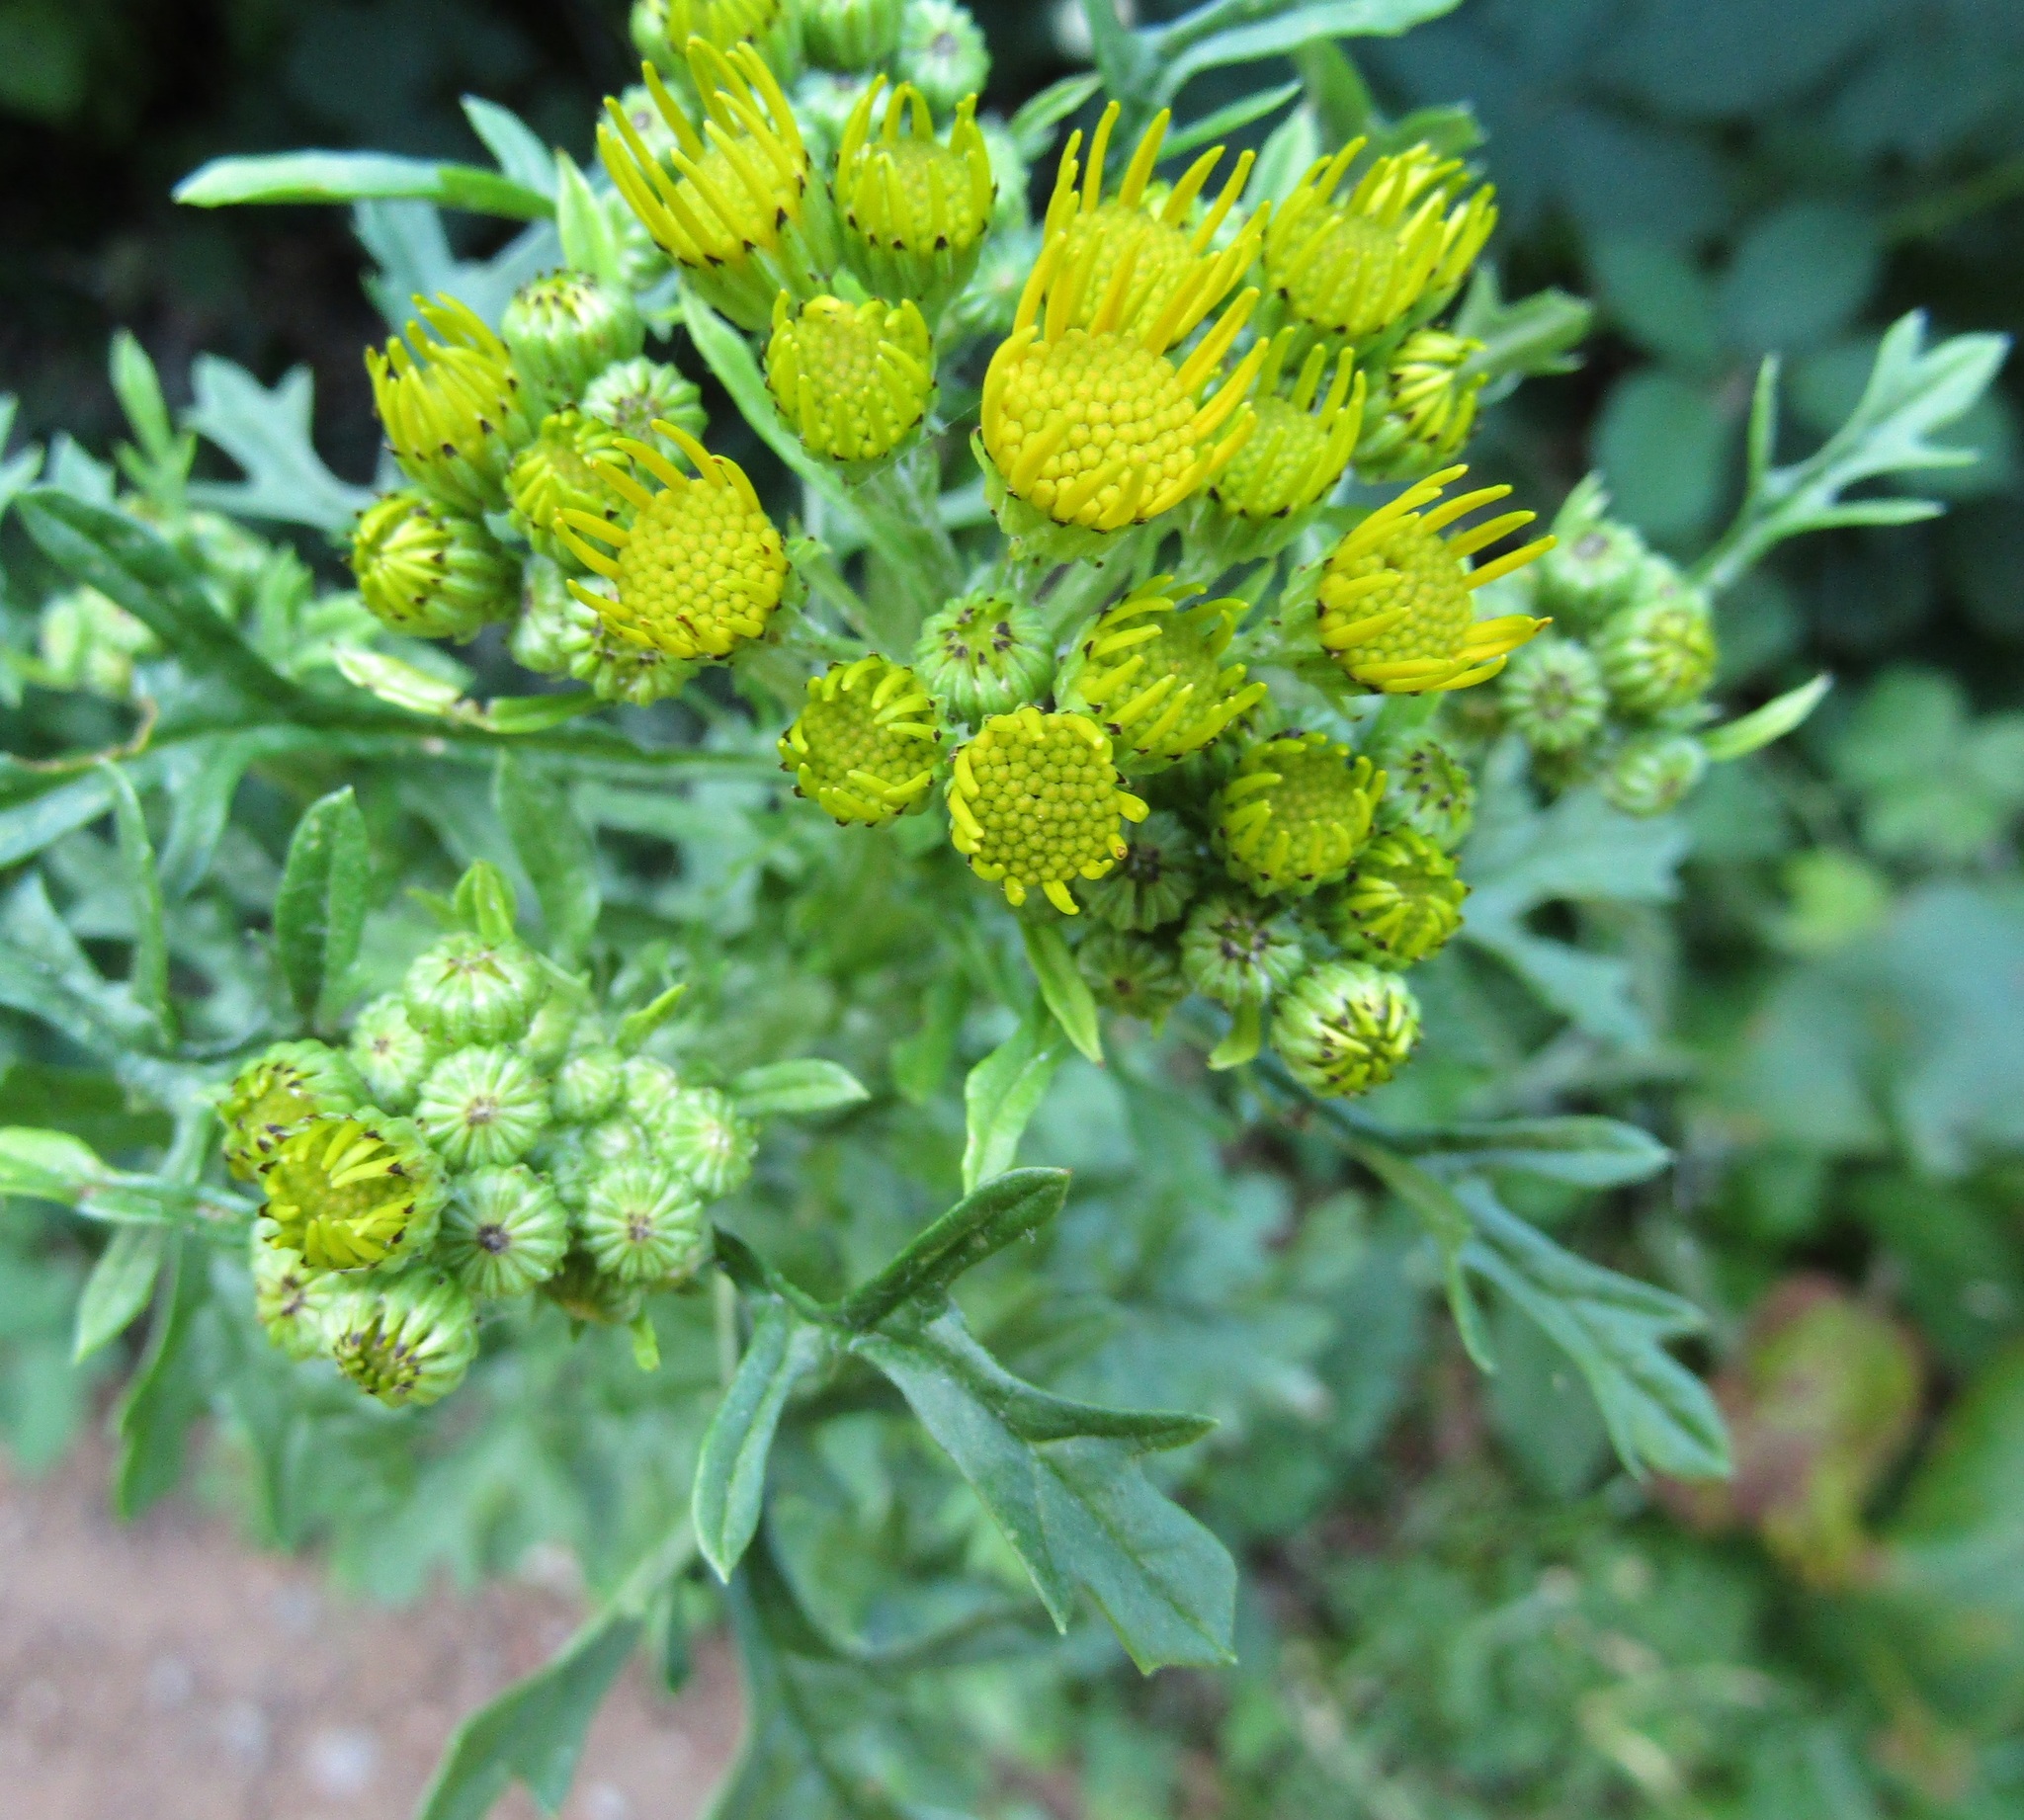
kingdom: Plantae
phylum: Tracheophyta
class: Magnoliopsida
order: Asterales
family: Asteraceae
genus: Jacobaea
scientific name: Jacobaea vulgaris
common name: Stinking willie
